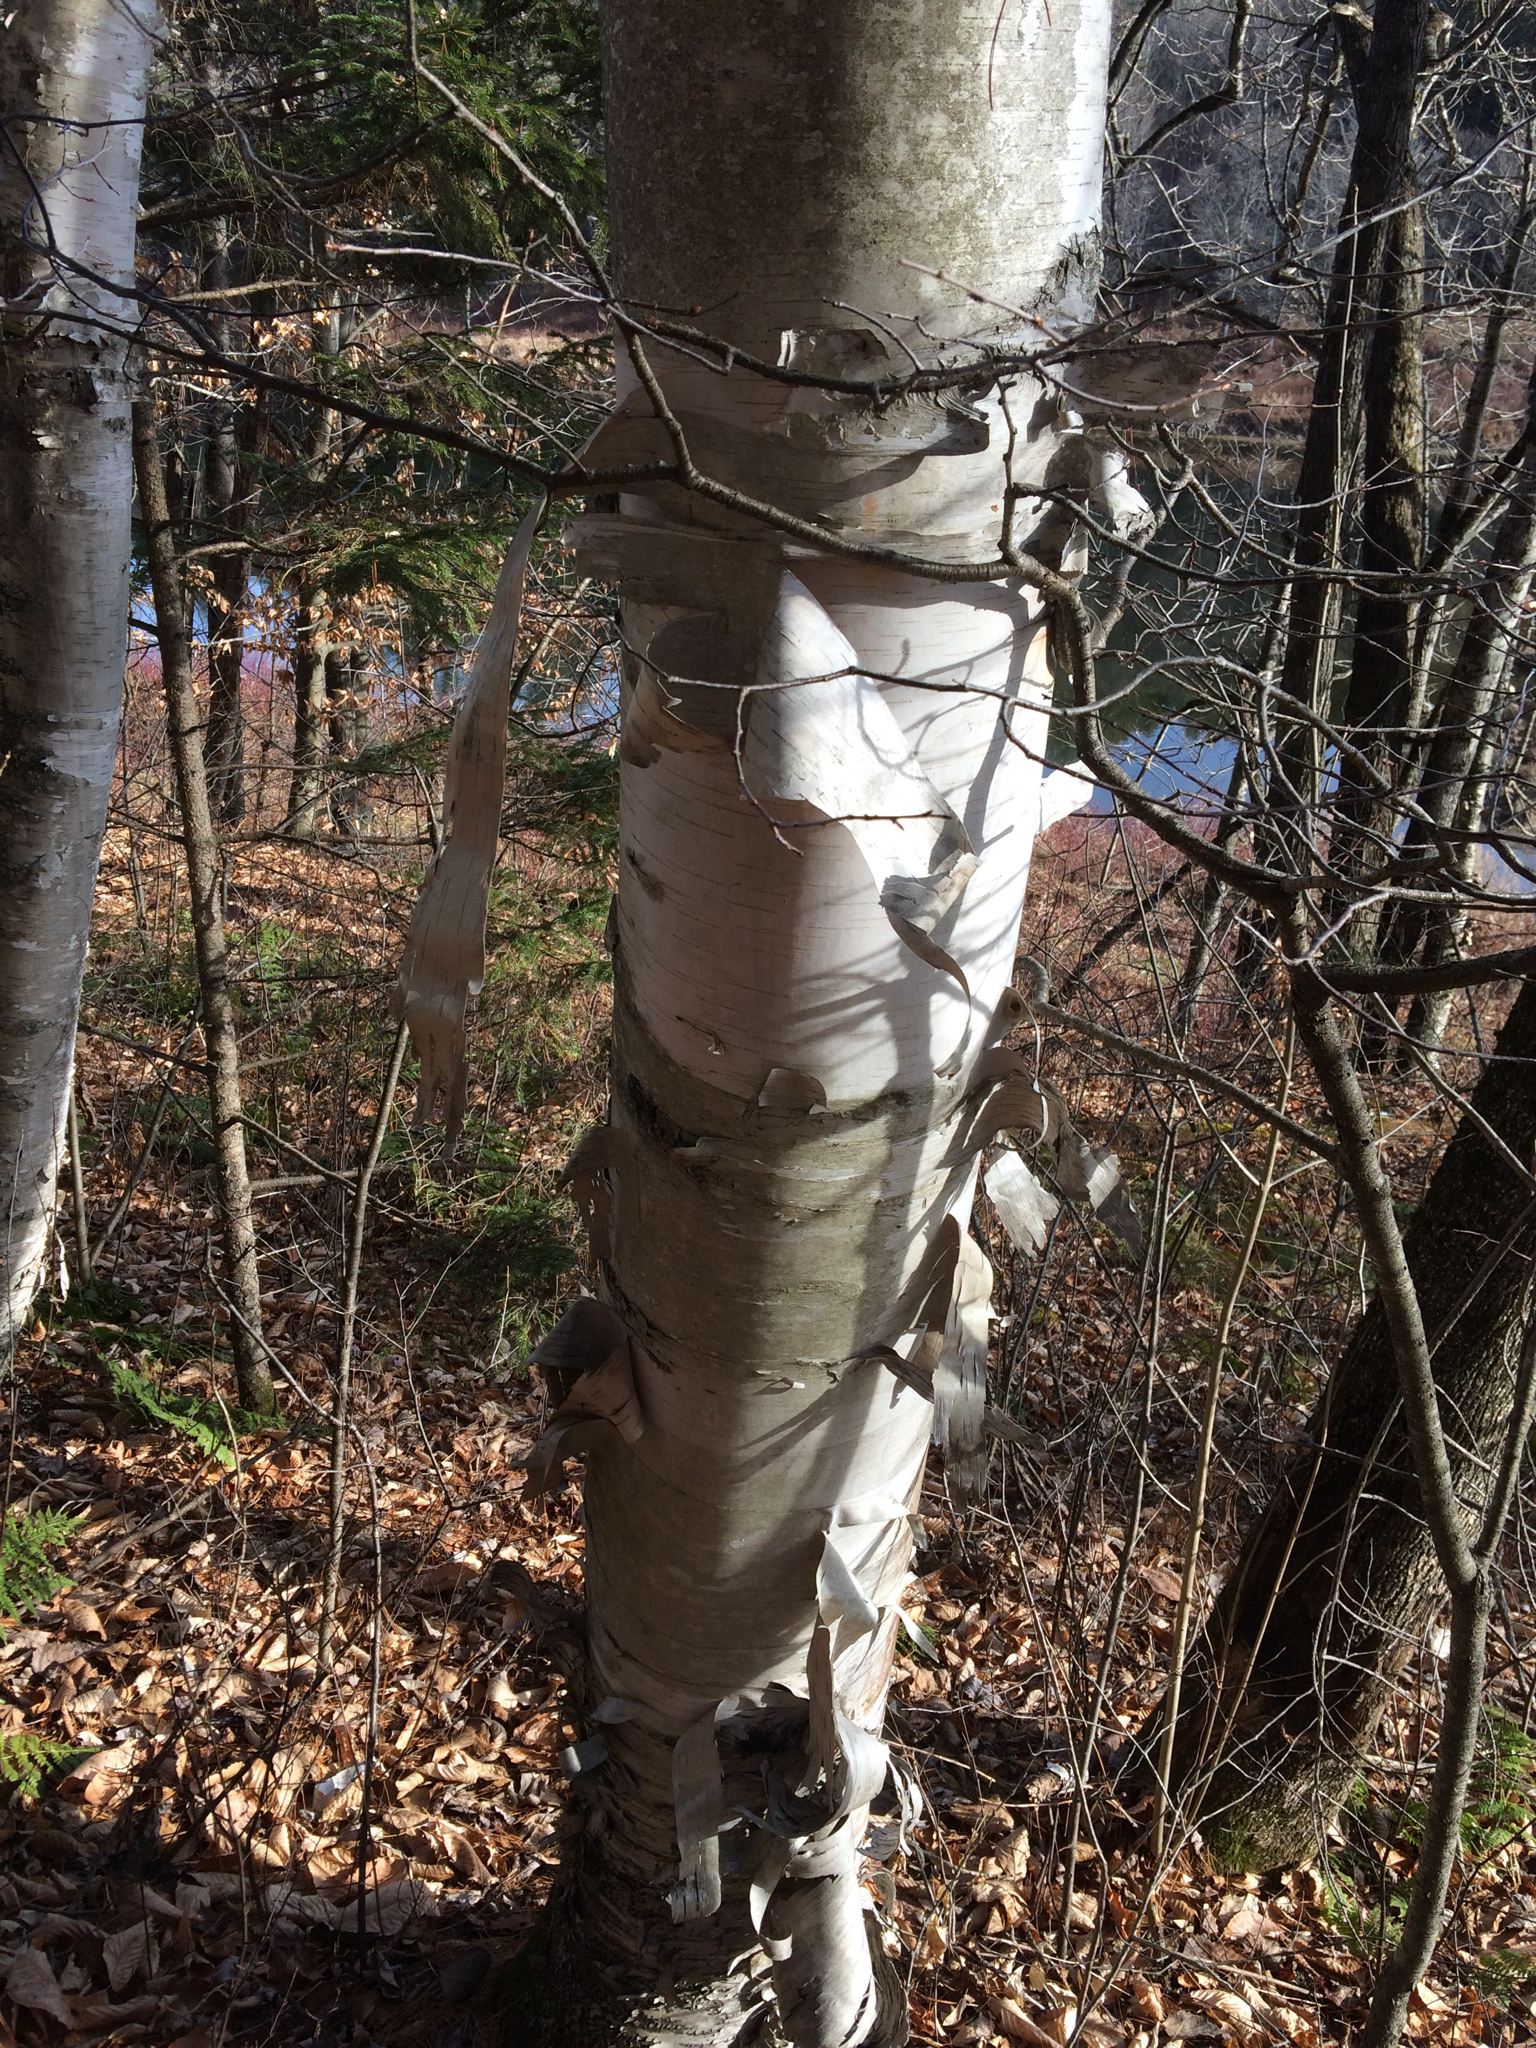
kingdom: Plantae
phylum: Tracheophyta
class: Magnoliopsida
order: Fagales
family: Betulaceae
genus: Betula
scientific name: Betula papyrifera
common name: Paper birch
